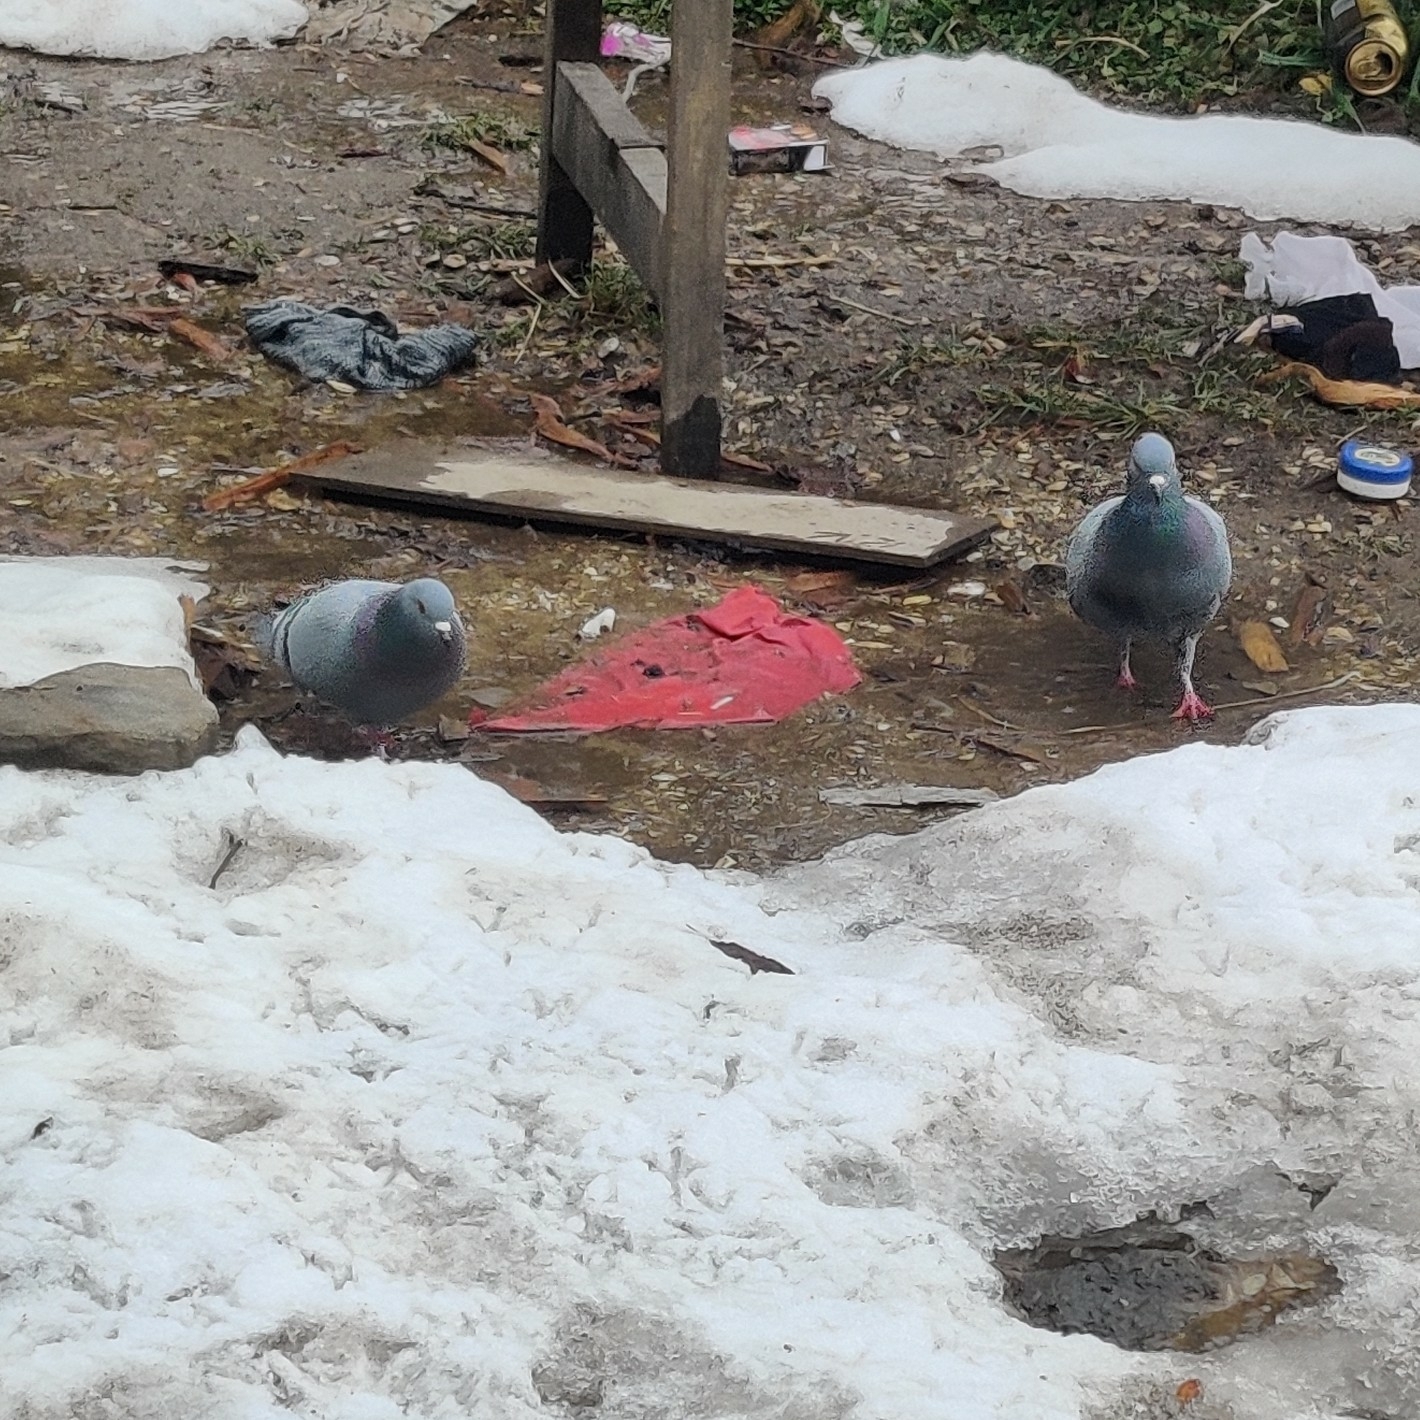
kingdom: Animalia
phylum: Chordata
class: Aves
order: Columbiformes
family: Columbidae
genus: Columba
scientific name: Columba livia
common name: Rock pigeon
